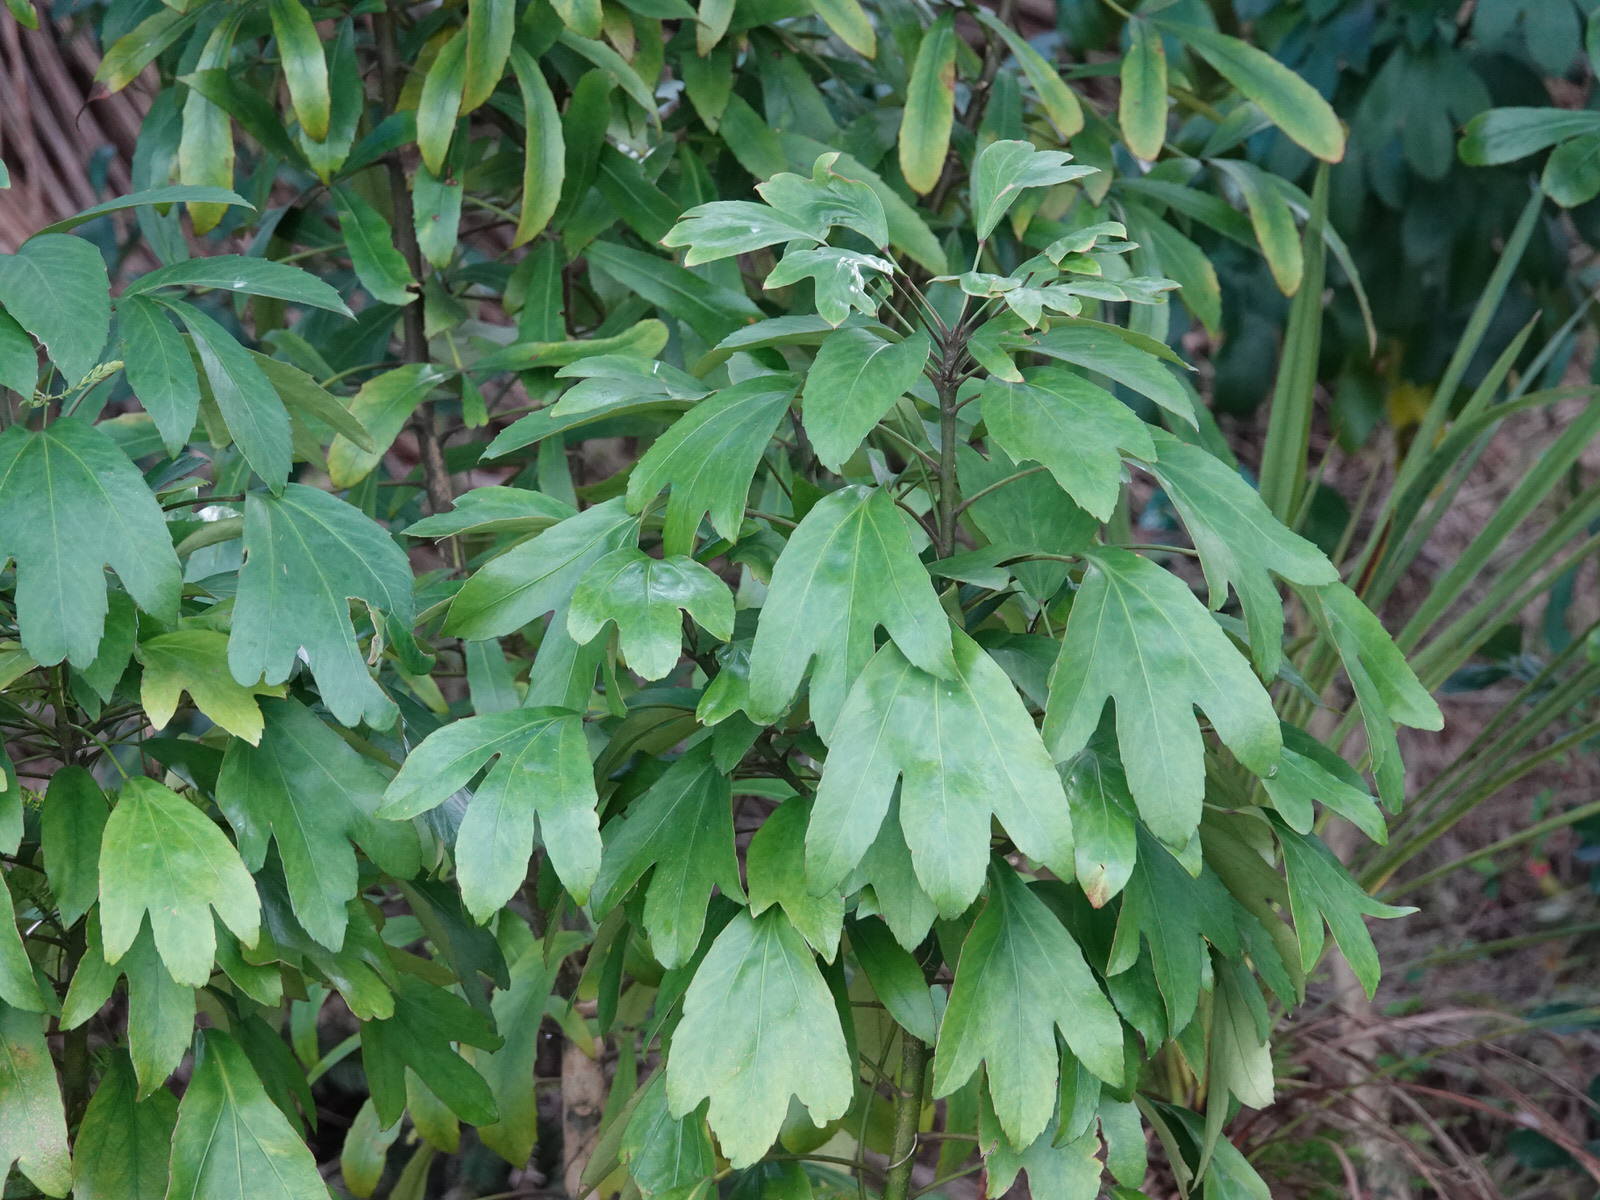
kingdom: Plantae
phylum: Tracheophyta
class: Magnoliopsida
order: Apiales
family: Araliaceae
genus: Pseudopanax
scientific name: Pseudopanax
